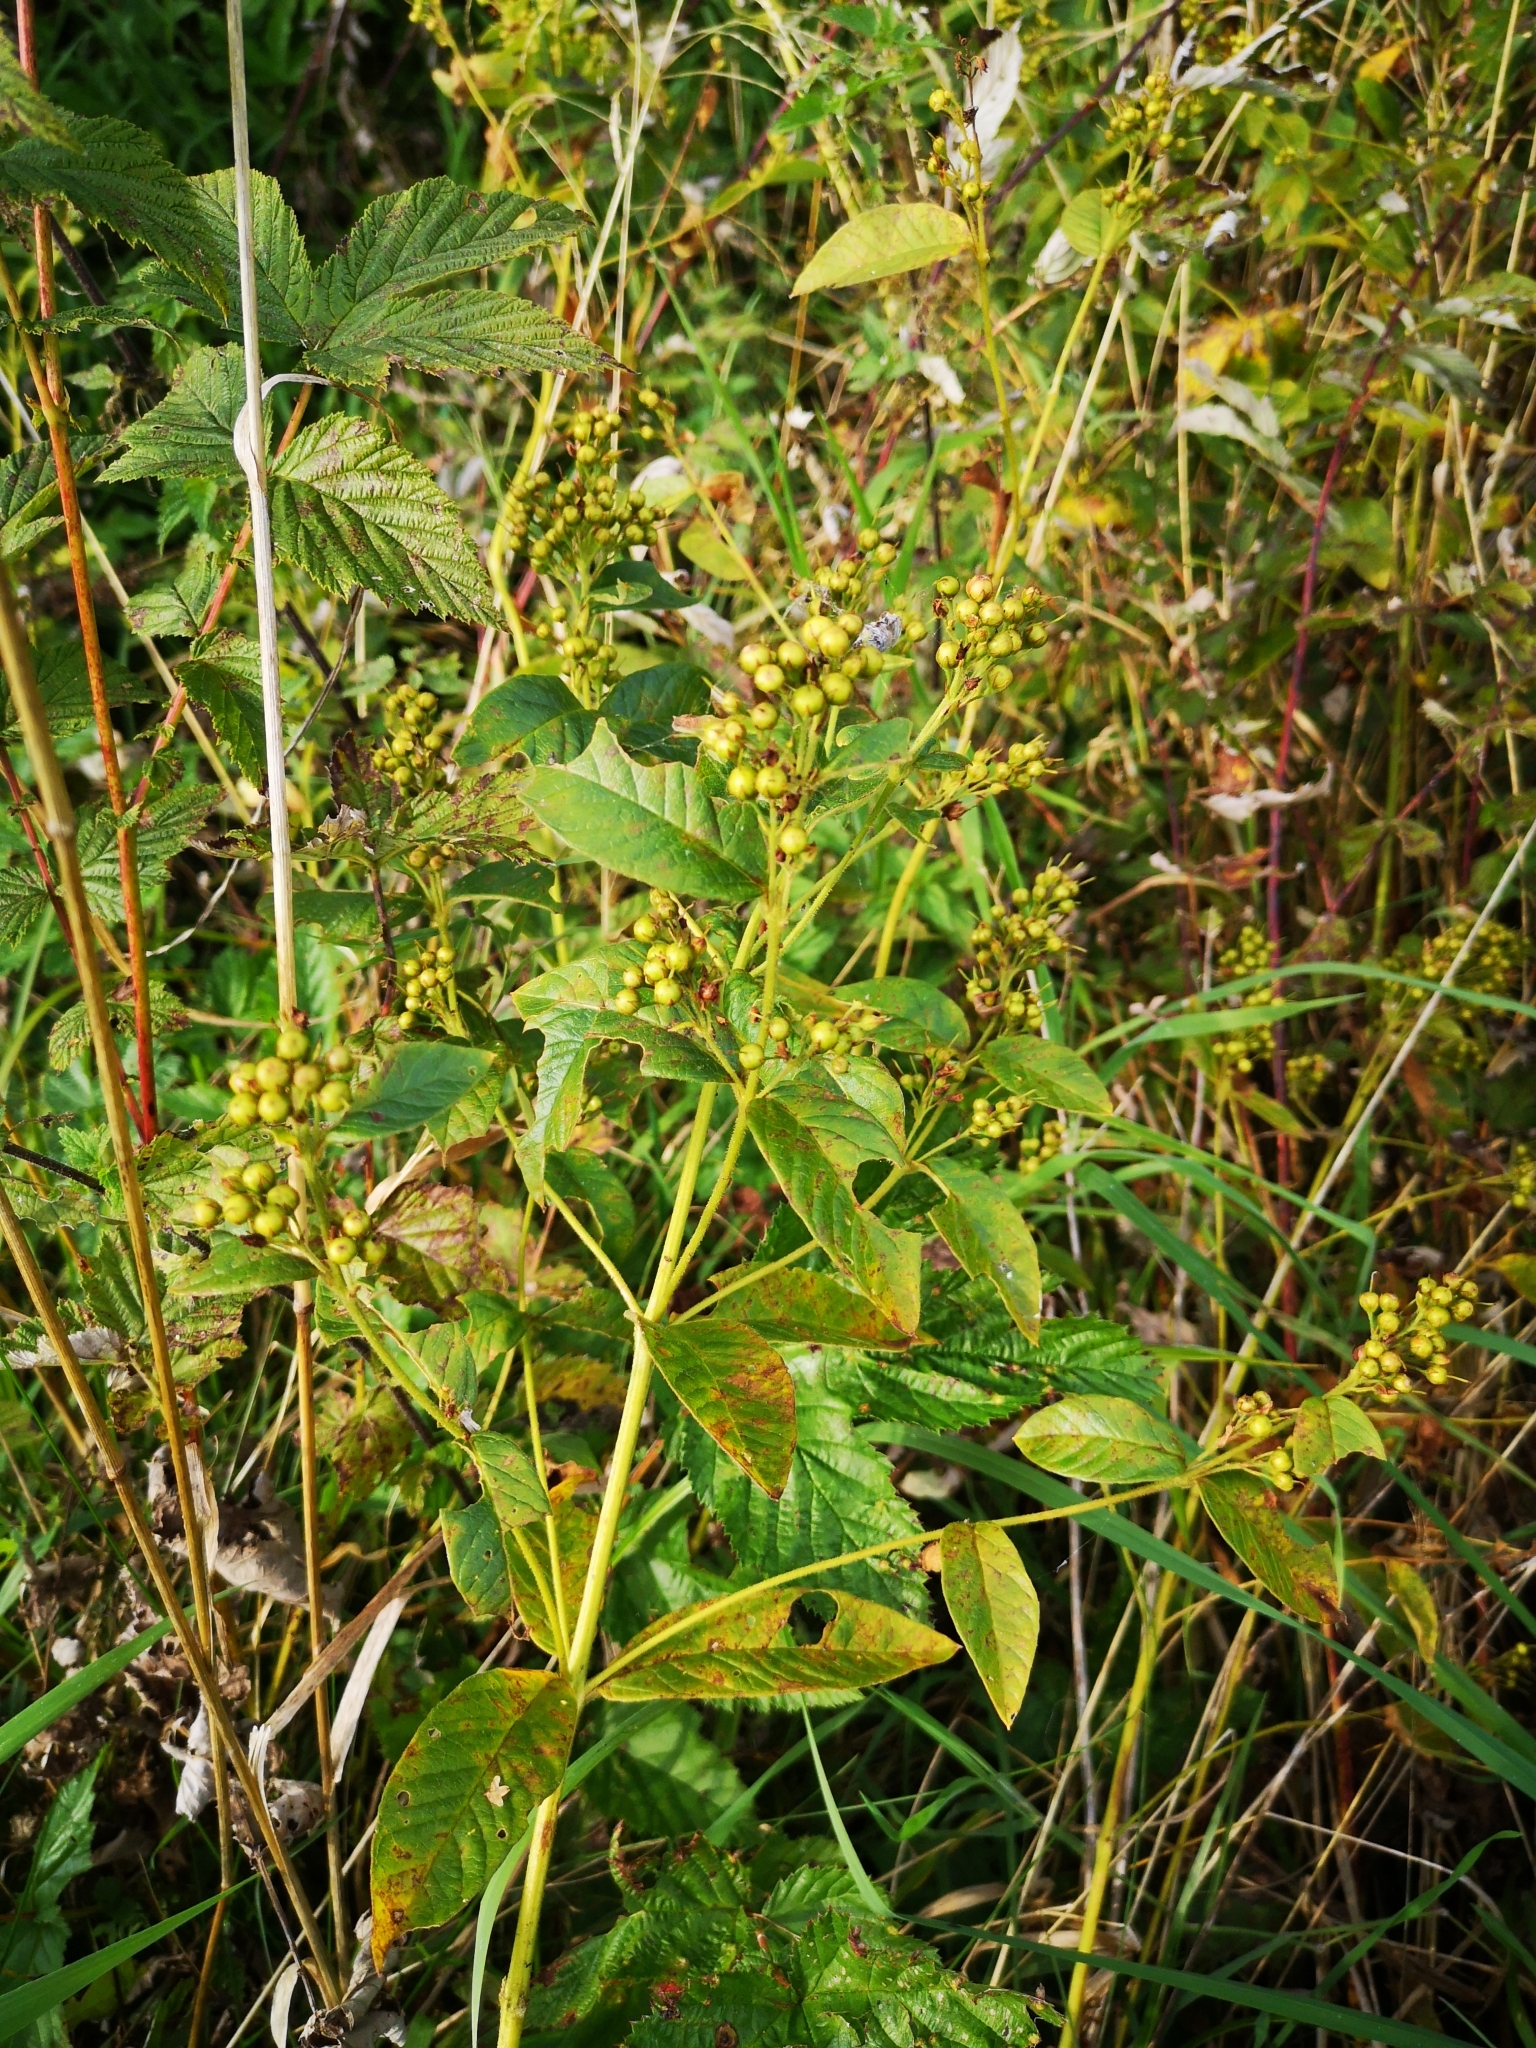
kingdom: Plantae
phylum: Tracheophyta
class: Magnoliopsida
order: Ericales
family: Primulaceae
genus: Lysimachia
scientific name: Lysimachia vulgaris
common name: Yellow loosestrife
